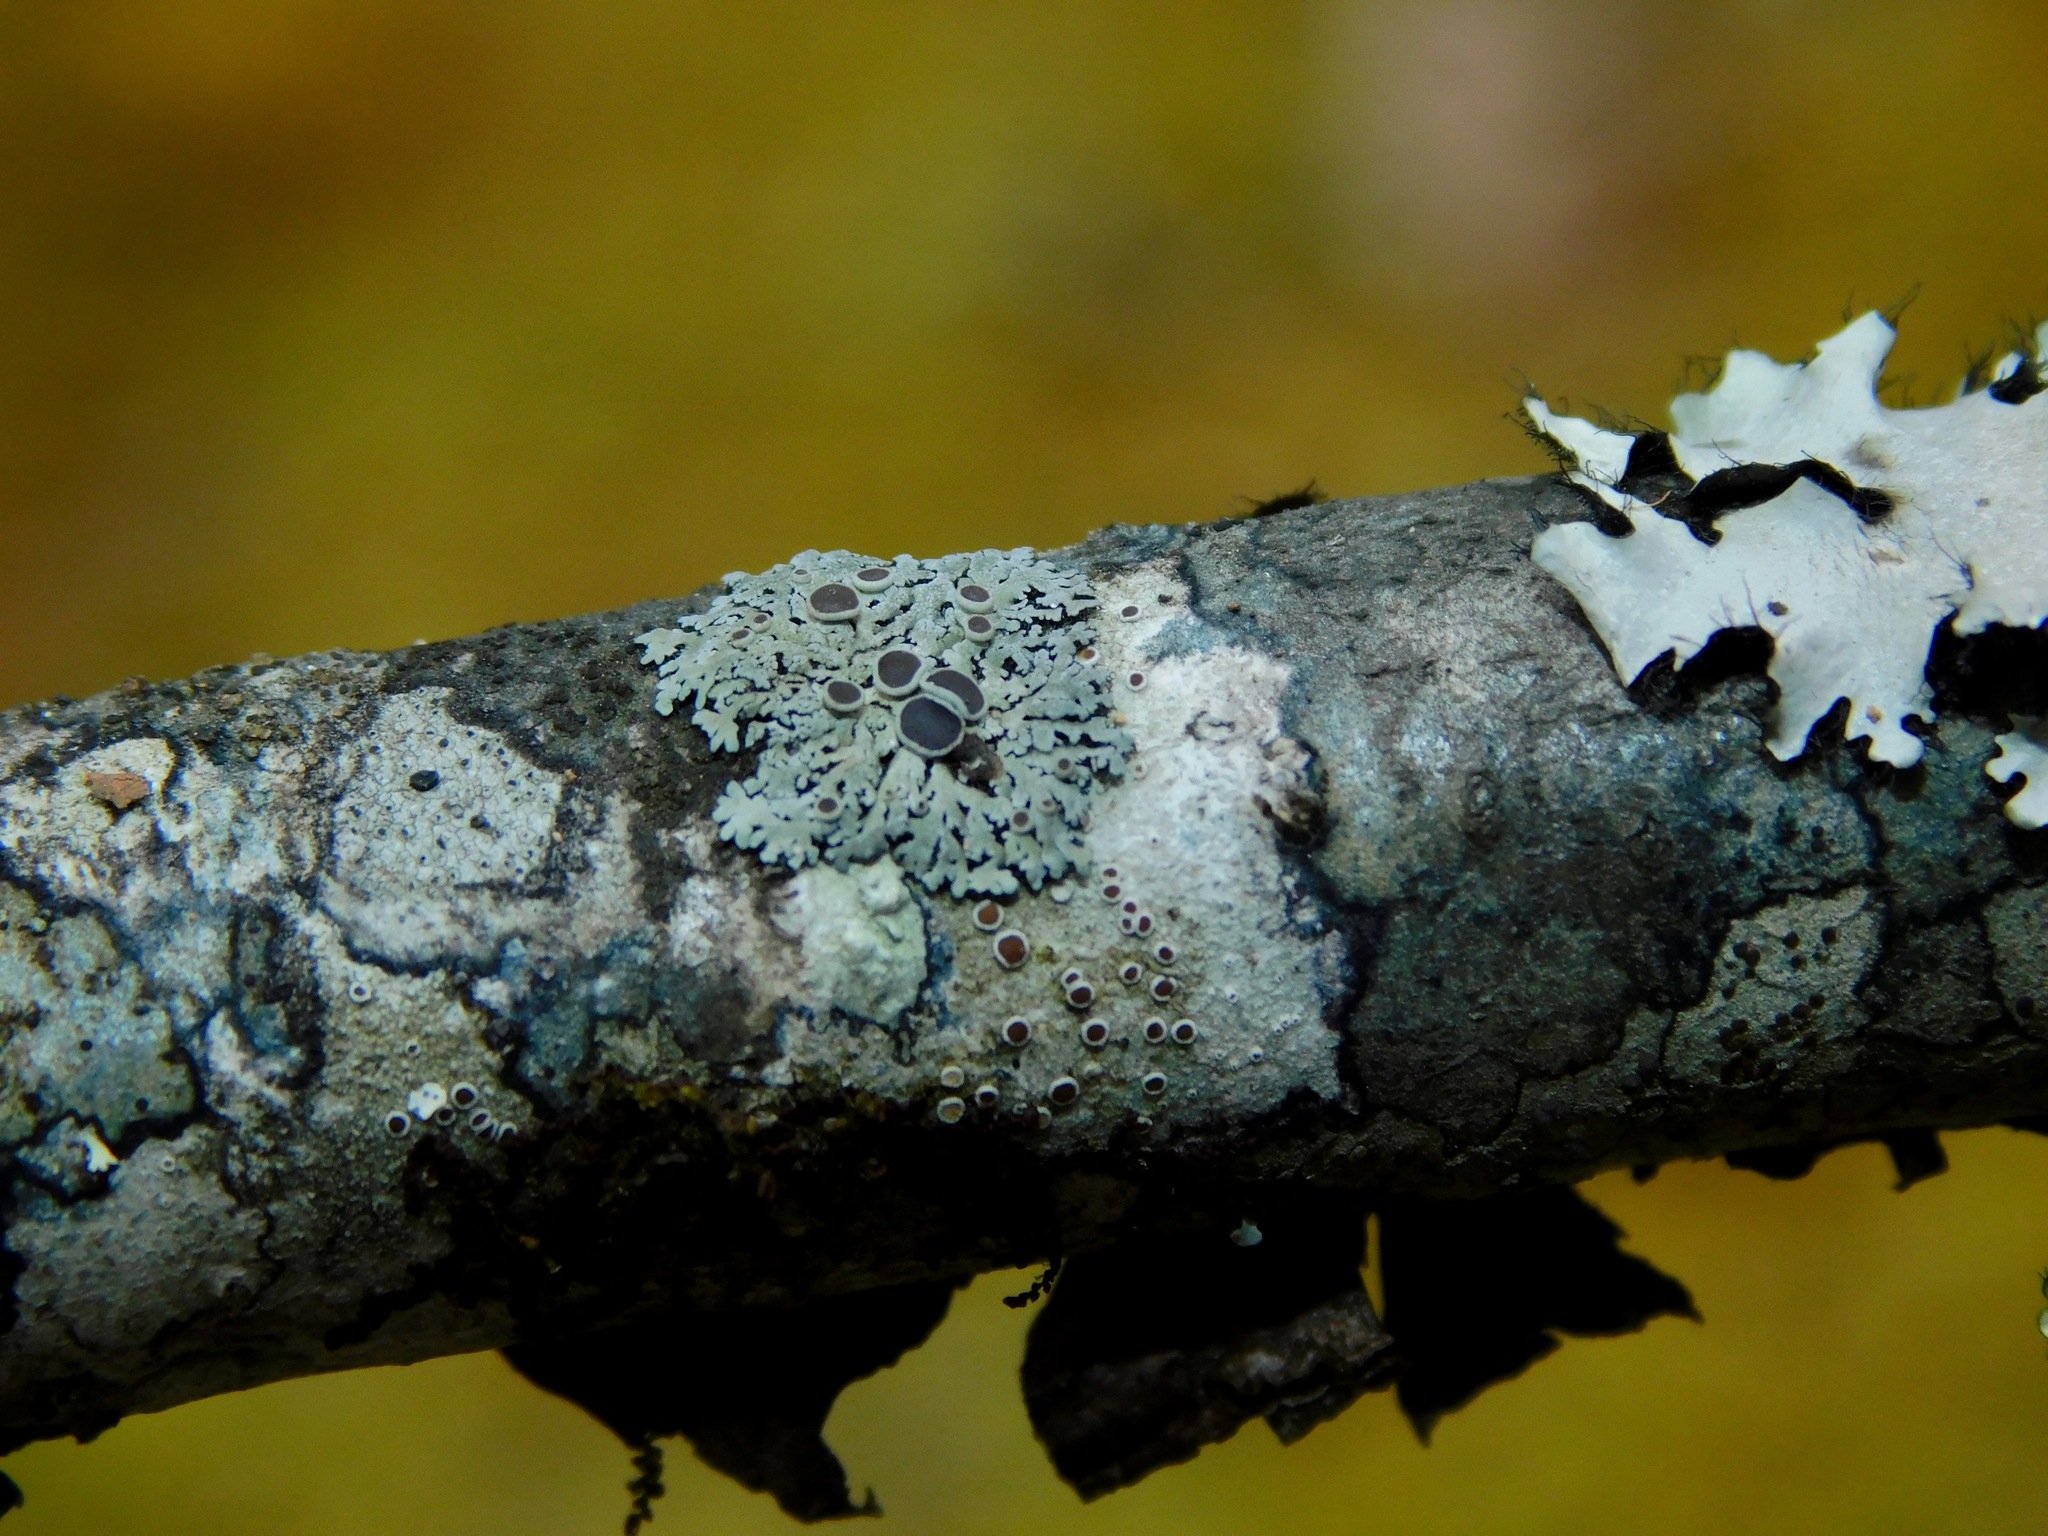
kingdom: Fungi
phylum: Ascomycota
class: Lecanoromycetes
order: Caliciales
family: Physciaceae
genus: Physcia
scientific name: Physcia aipolia
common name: Hoary rosette lichen
